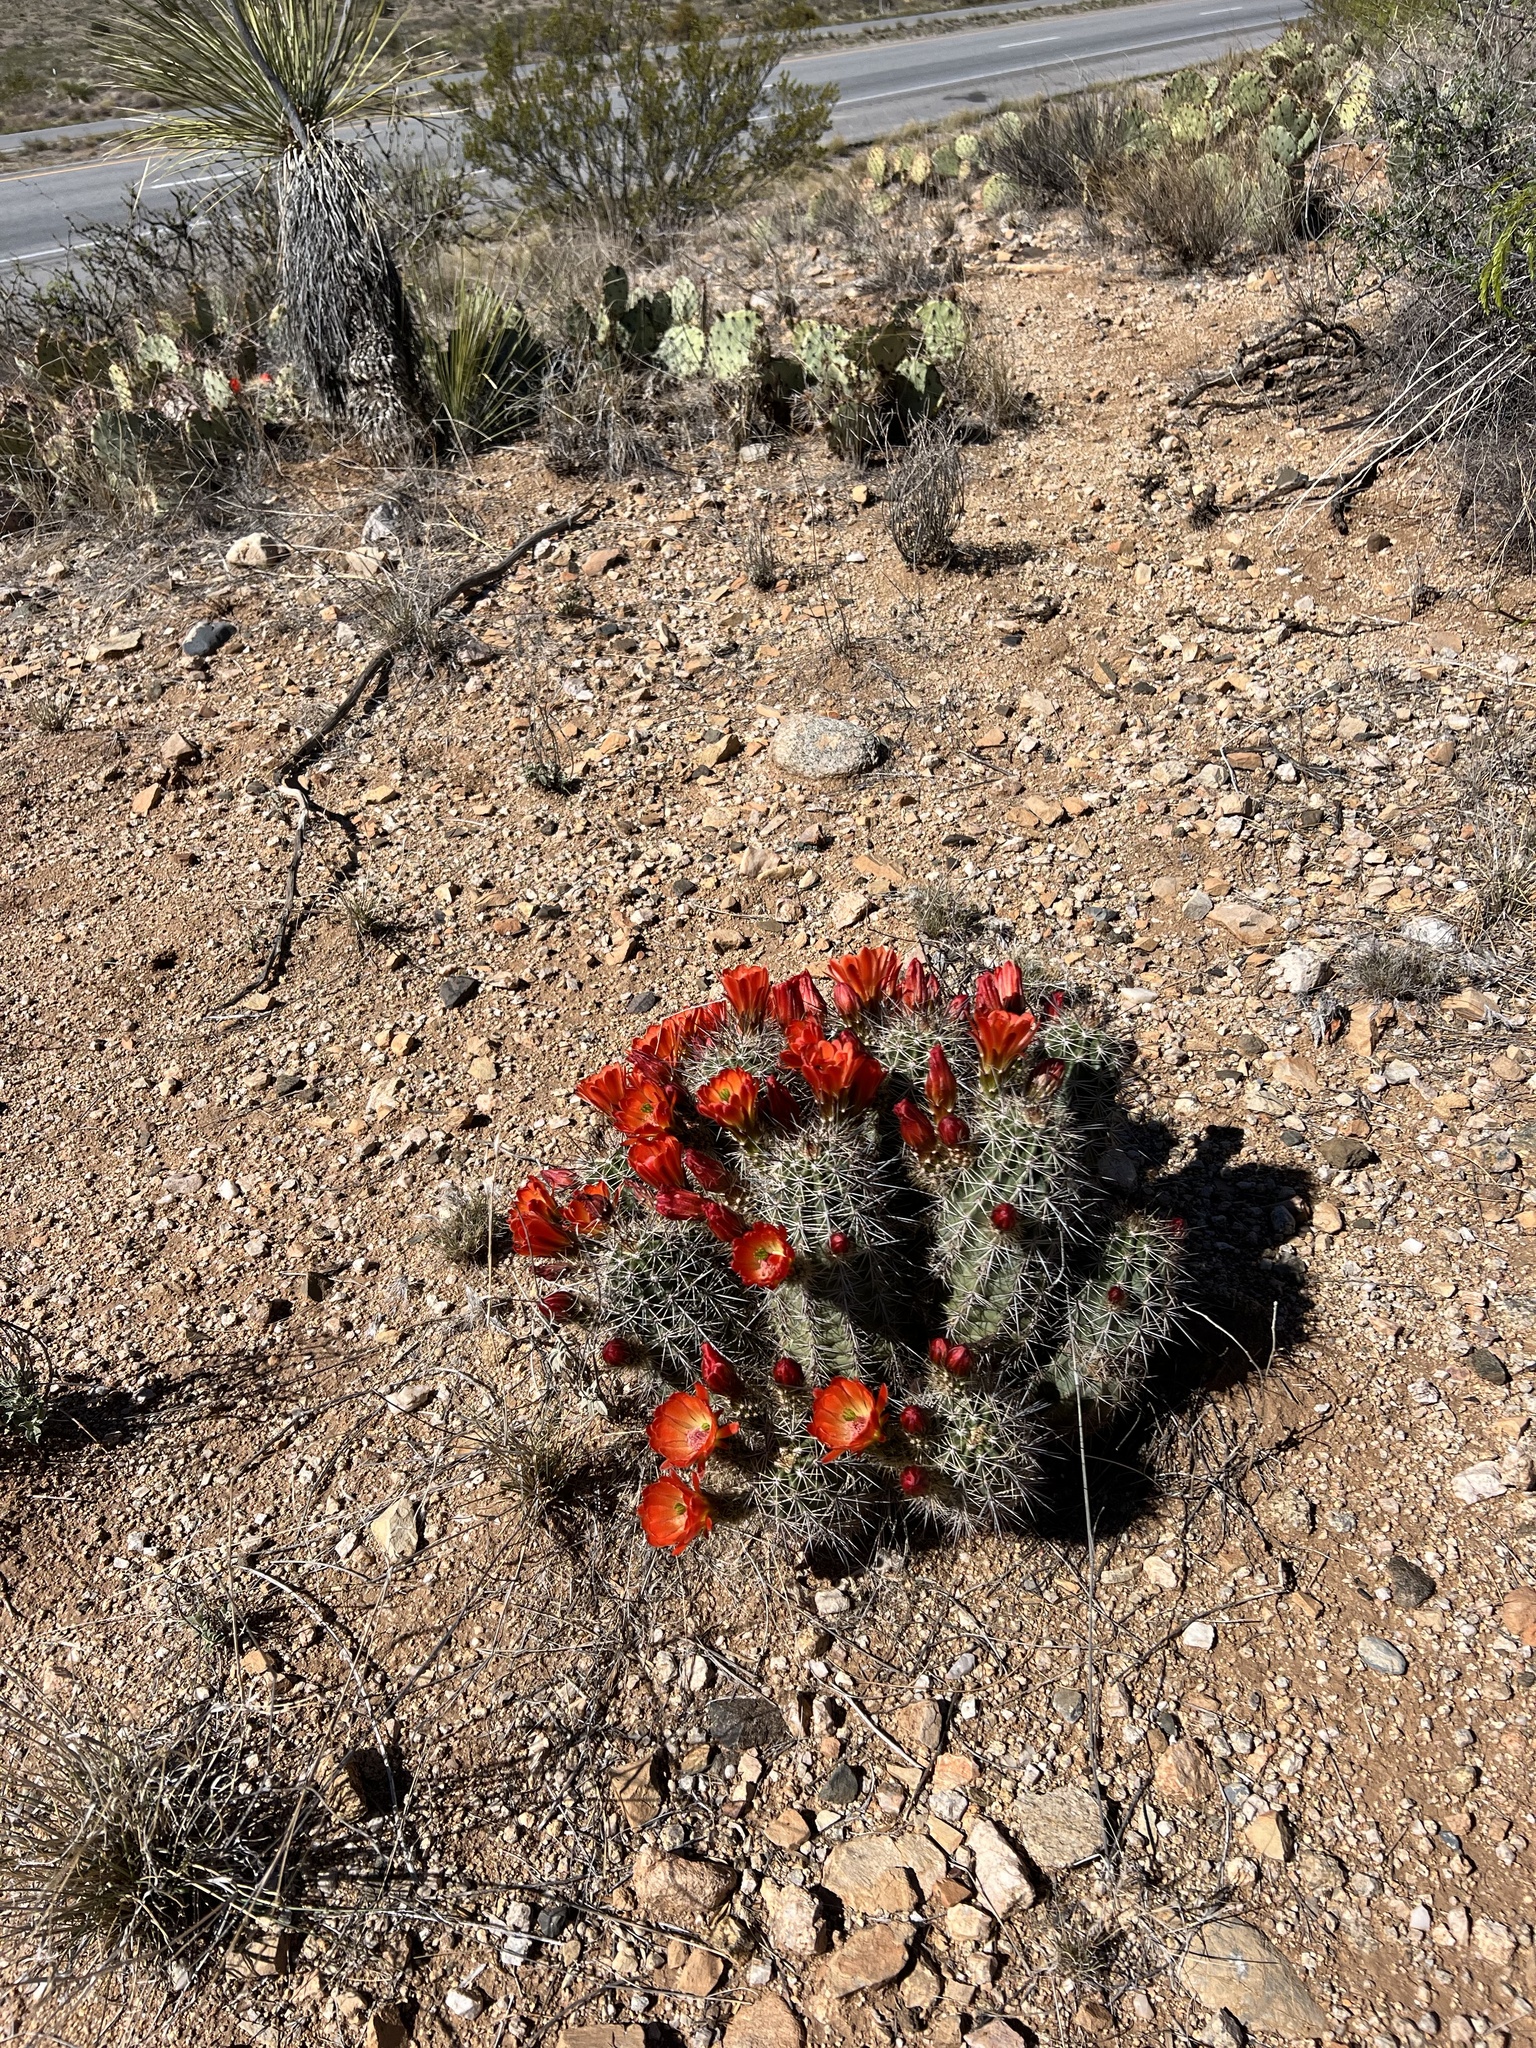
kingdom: Plantae
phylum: Tracheophyta
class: Magnoliopsida
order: Caryophyllales
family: Cactaceae
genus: Echinocereus
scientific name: Echinocereus coccineus
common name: Scarlet hedgehog cactus
